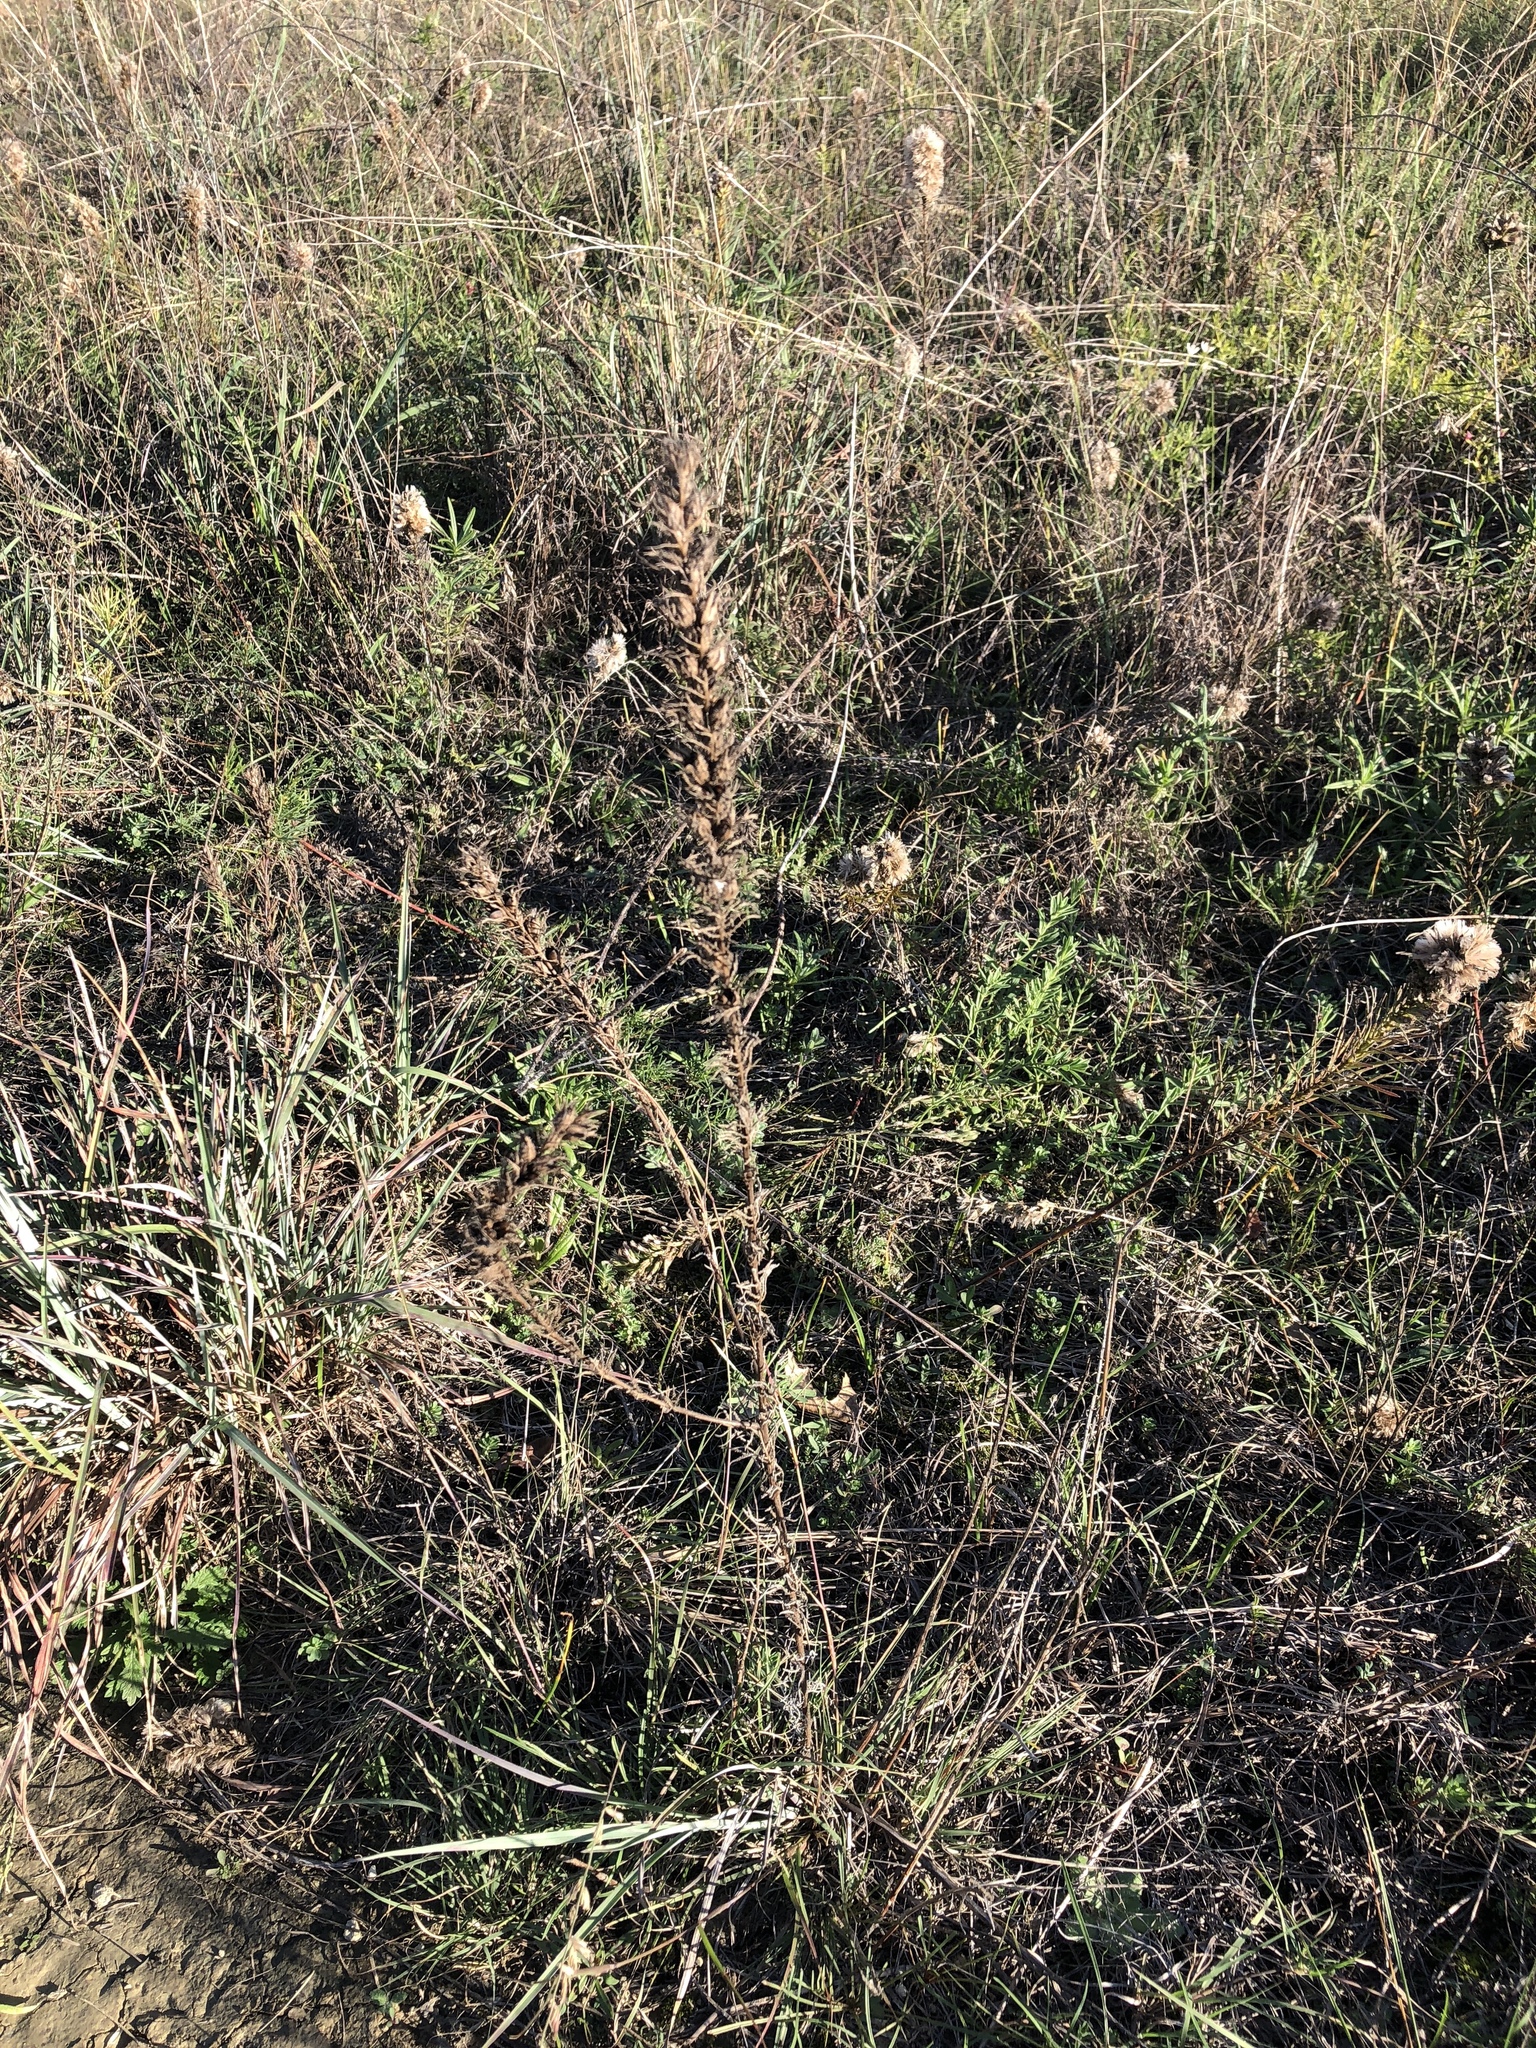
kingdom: Plantae
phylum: Tracheophyta
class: Magnoliopsida
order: Lamiales
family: Orobanchaceae
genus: Agalinis
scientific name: Agalinis densiflora
